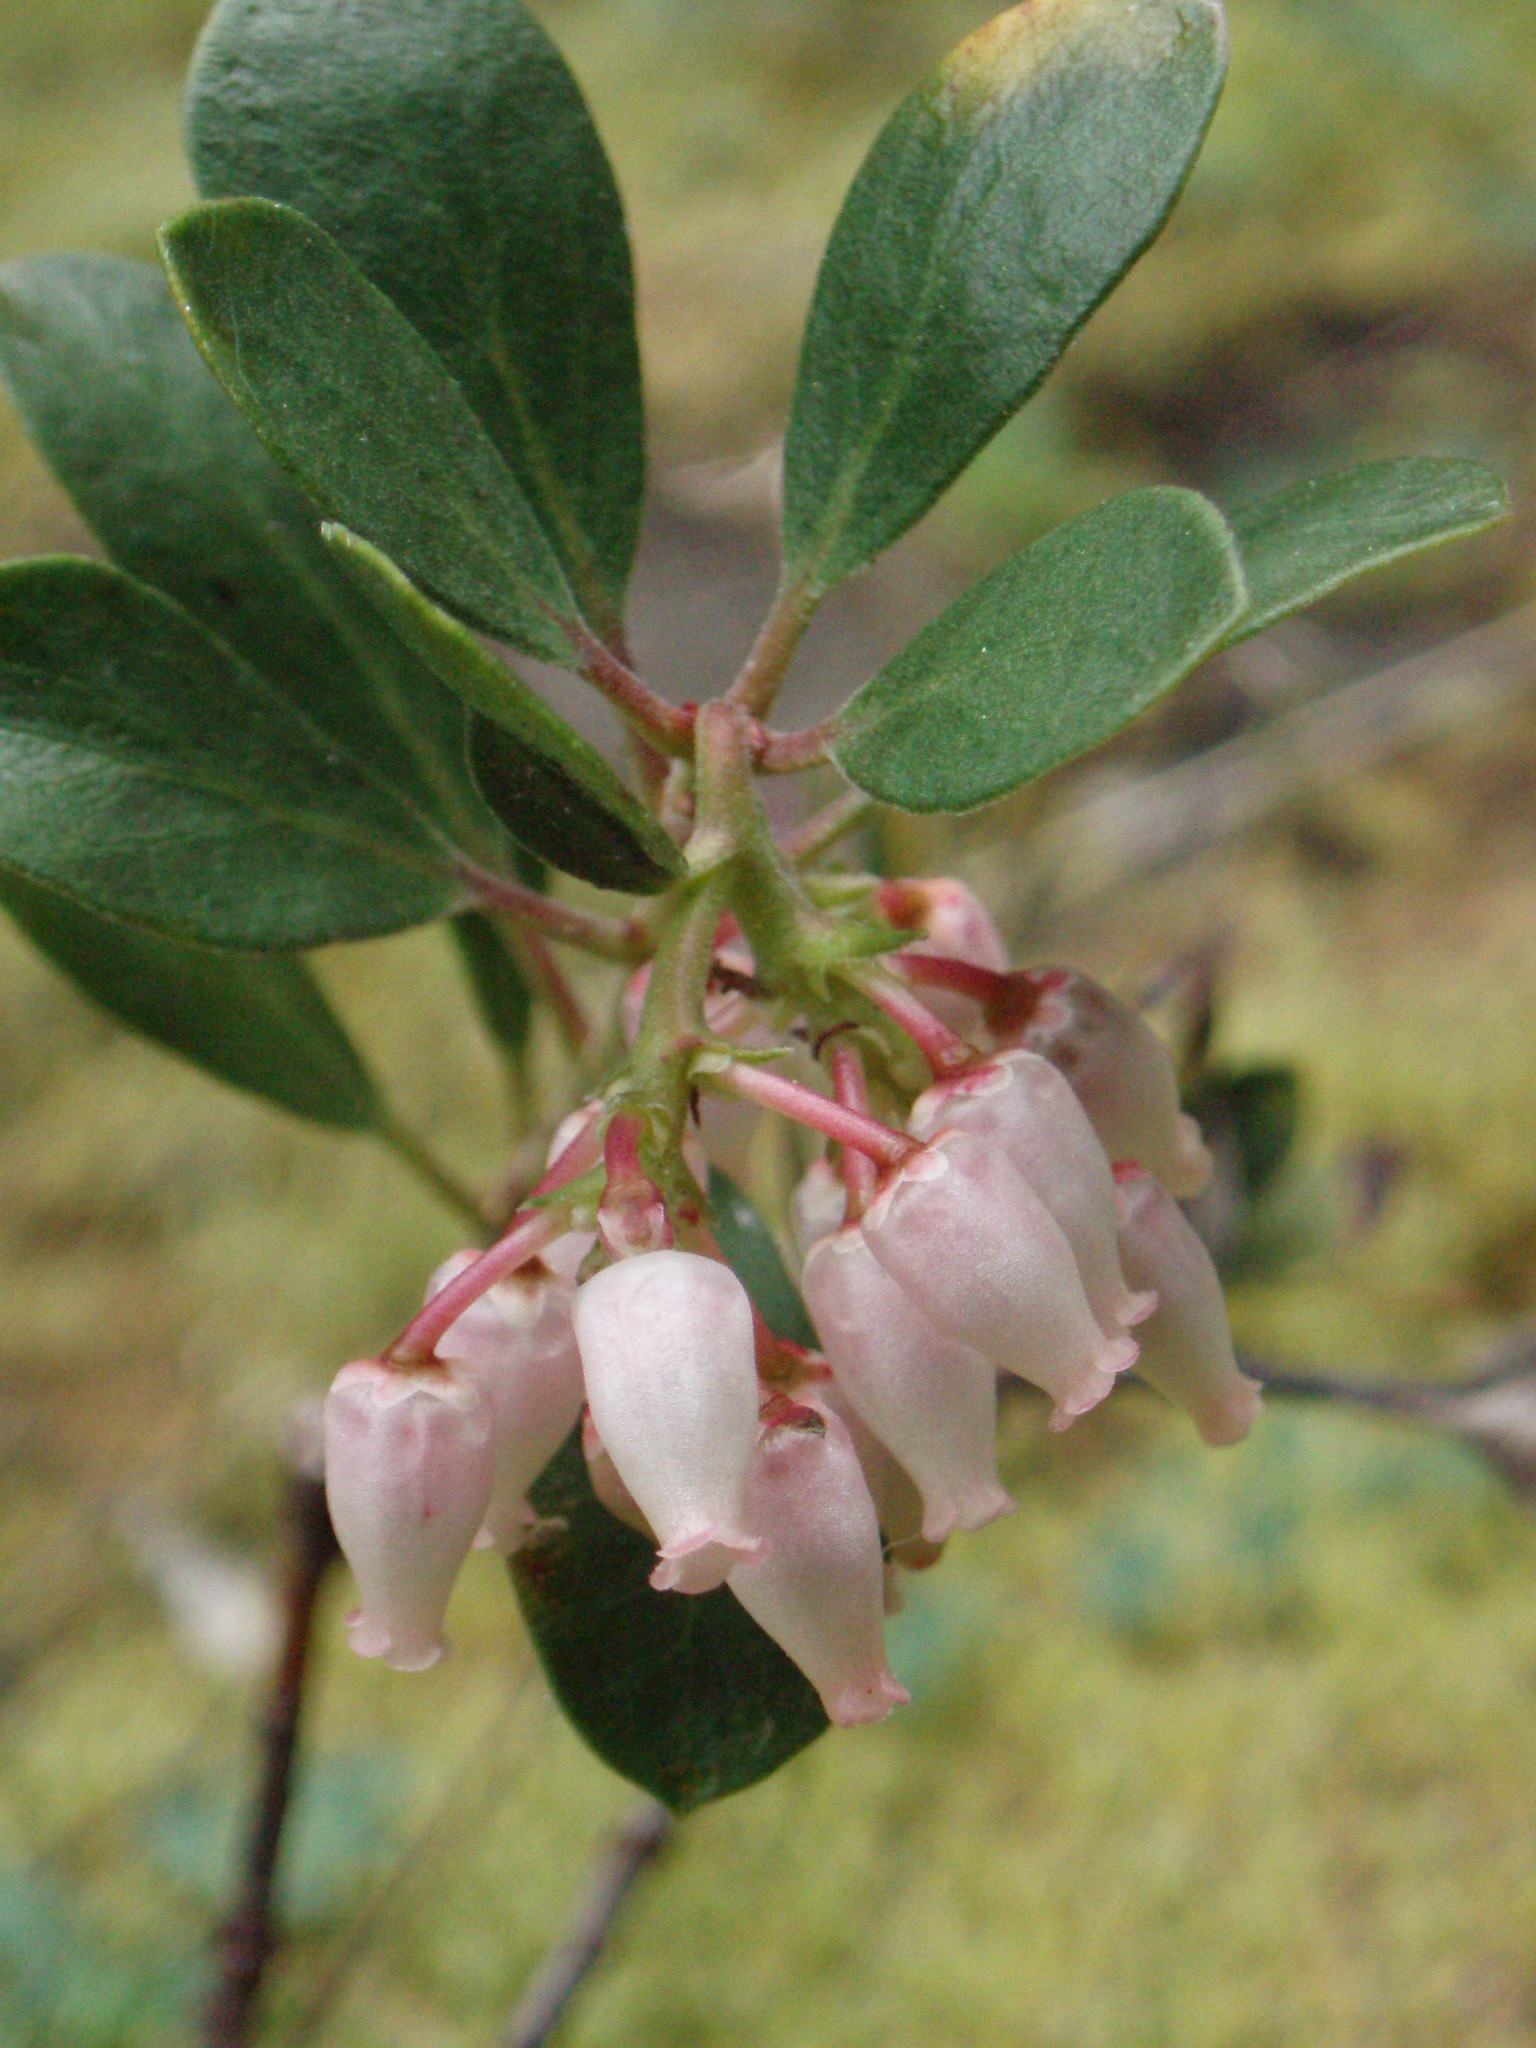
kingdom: Plantae
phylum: Tracheophyta
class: Magnoliopsida
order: Ericales
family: Ericaceae
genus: Arctostaphylos
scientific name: Arctostaphylos nevadensis
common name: Pinemat manzanita
